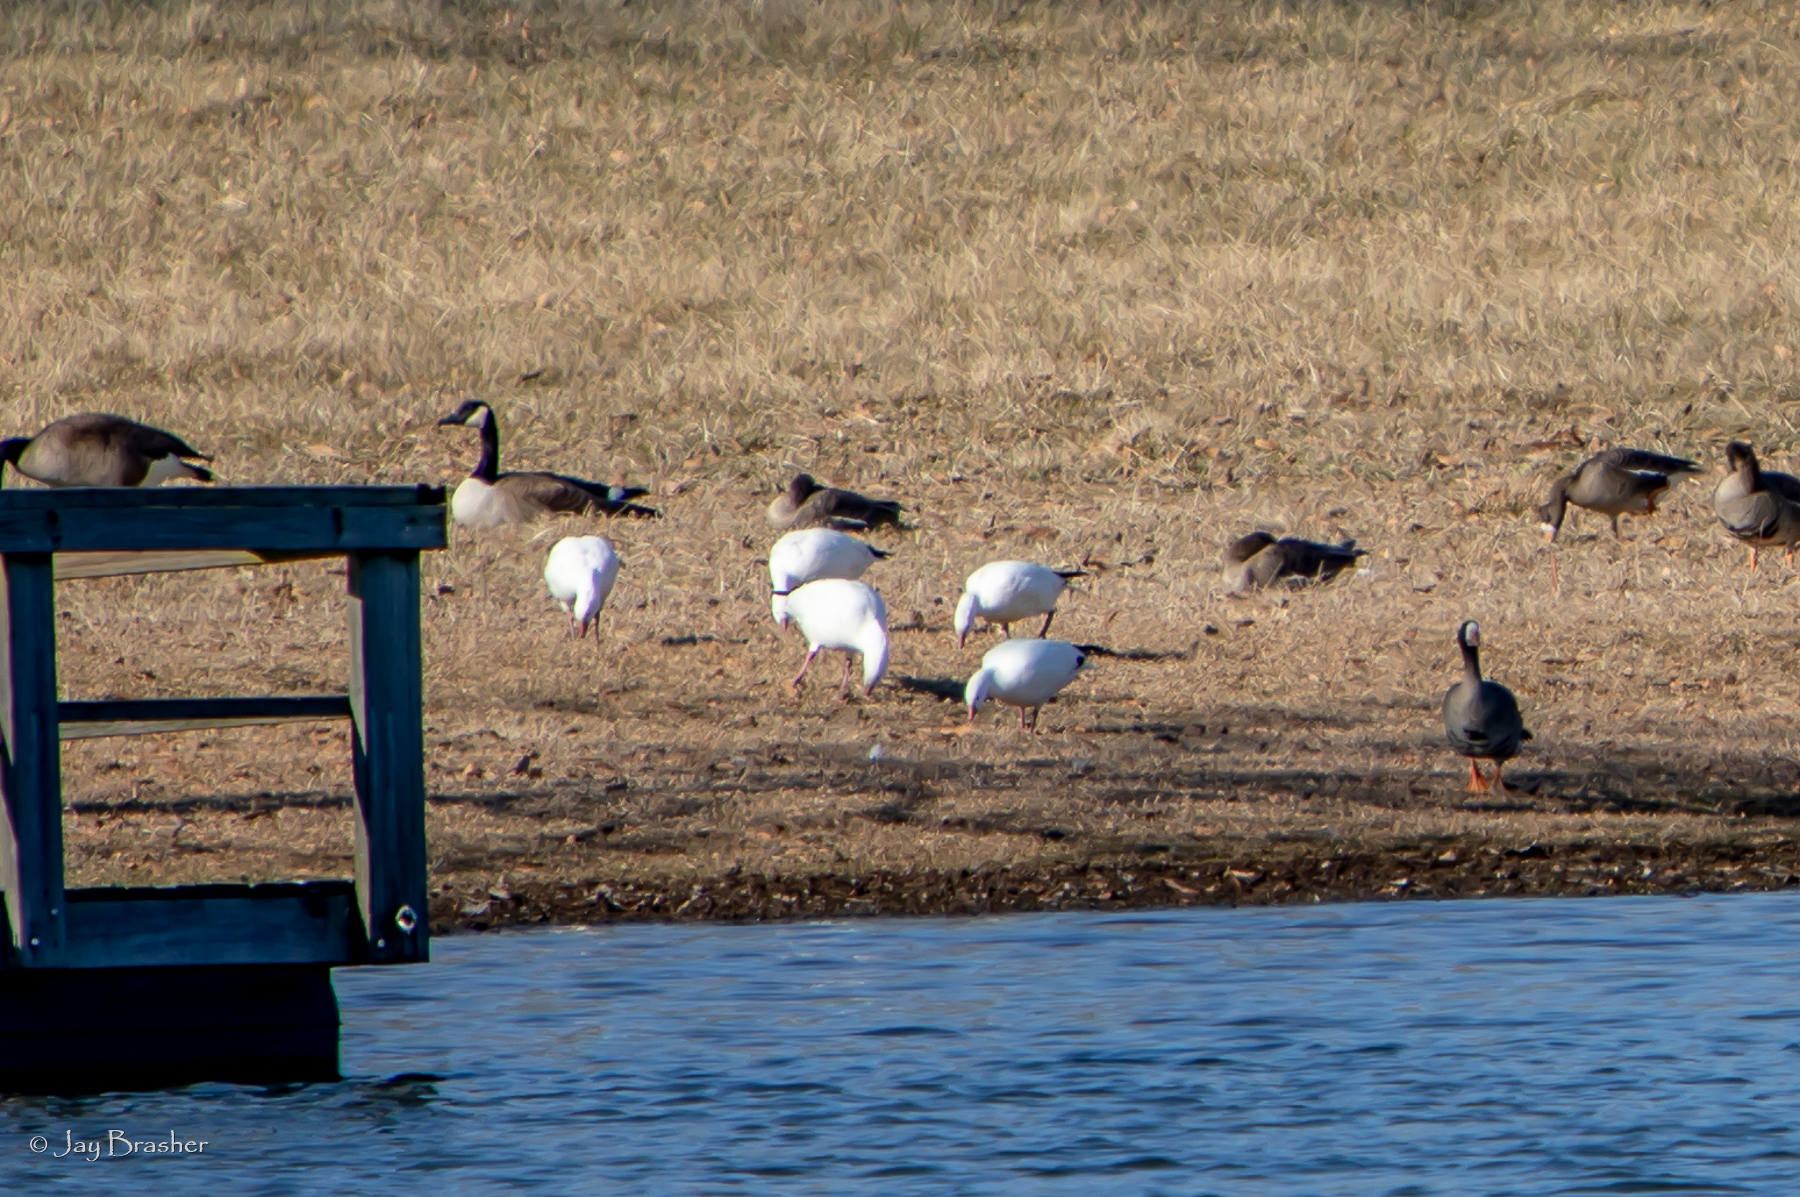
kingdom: Animalia
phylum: Chordata
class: Aves
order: Anseriformes
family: Anatidae
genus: Anser
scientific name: Anser caerulescens
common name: Snow goose
